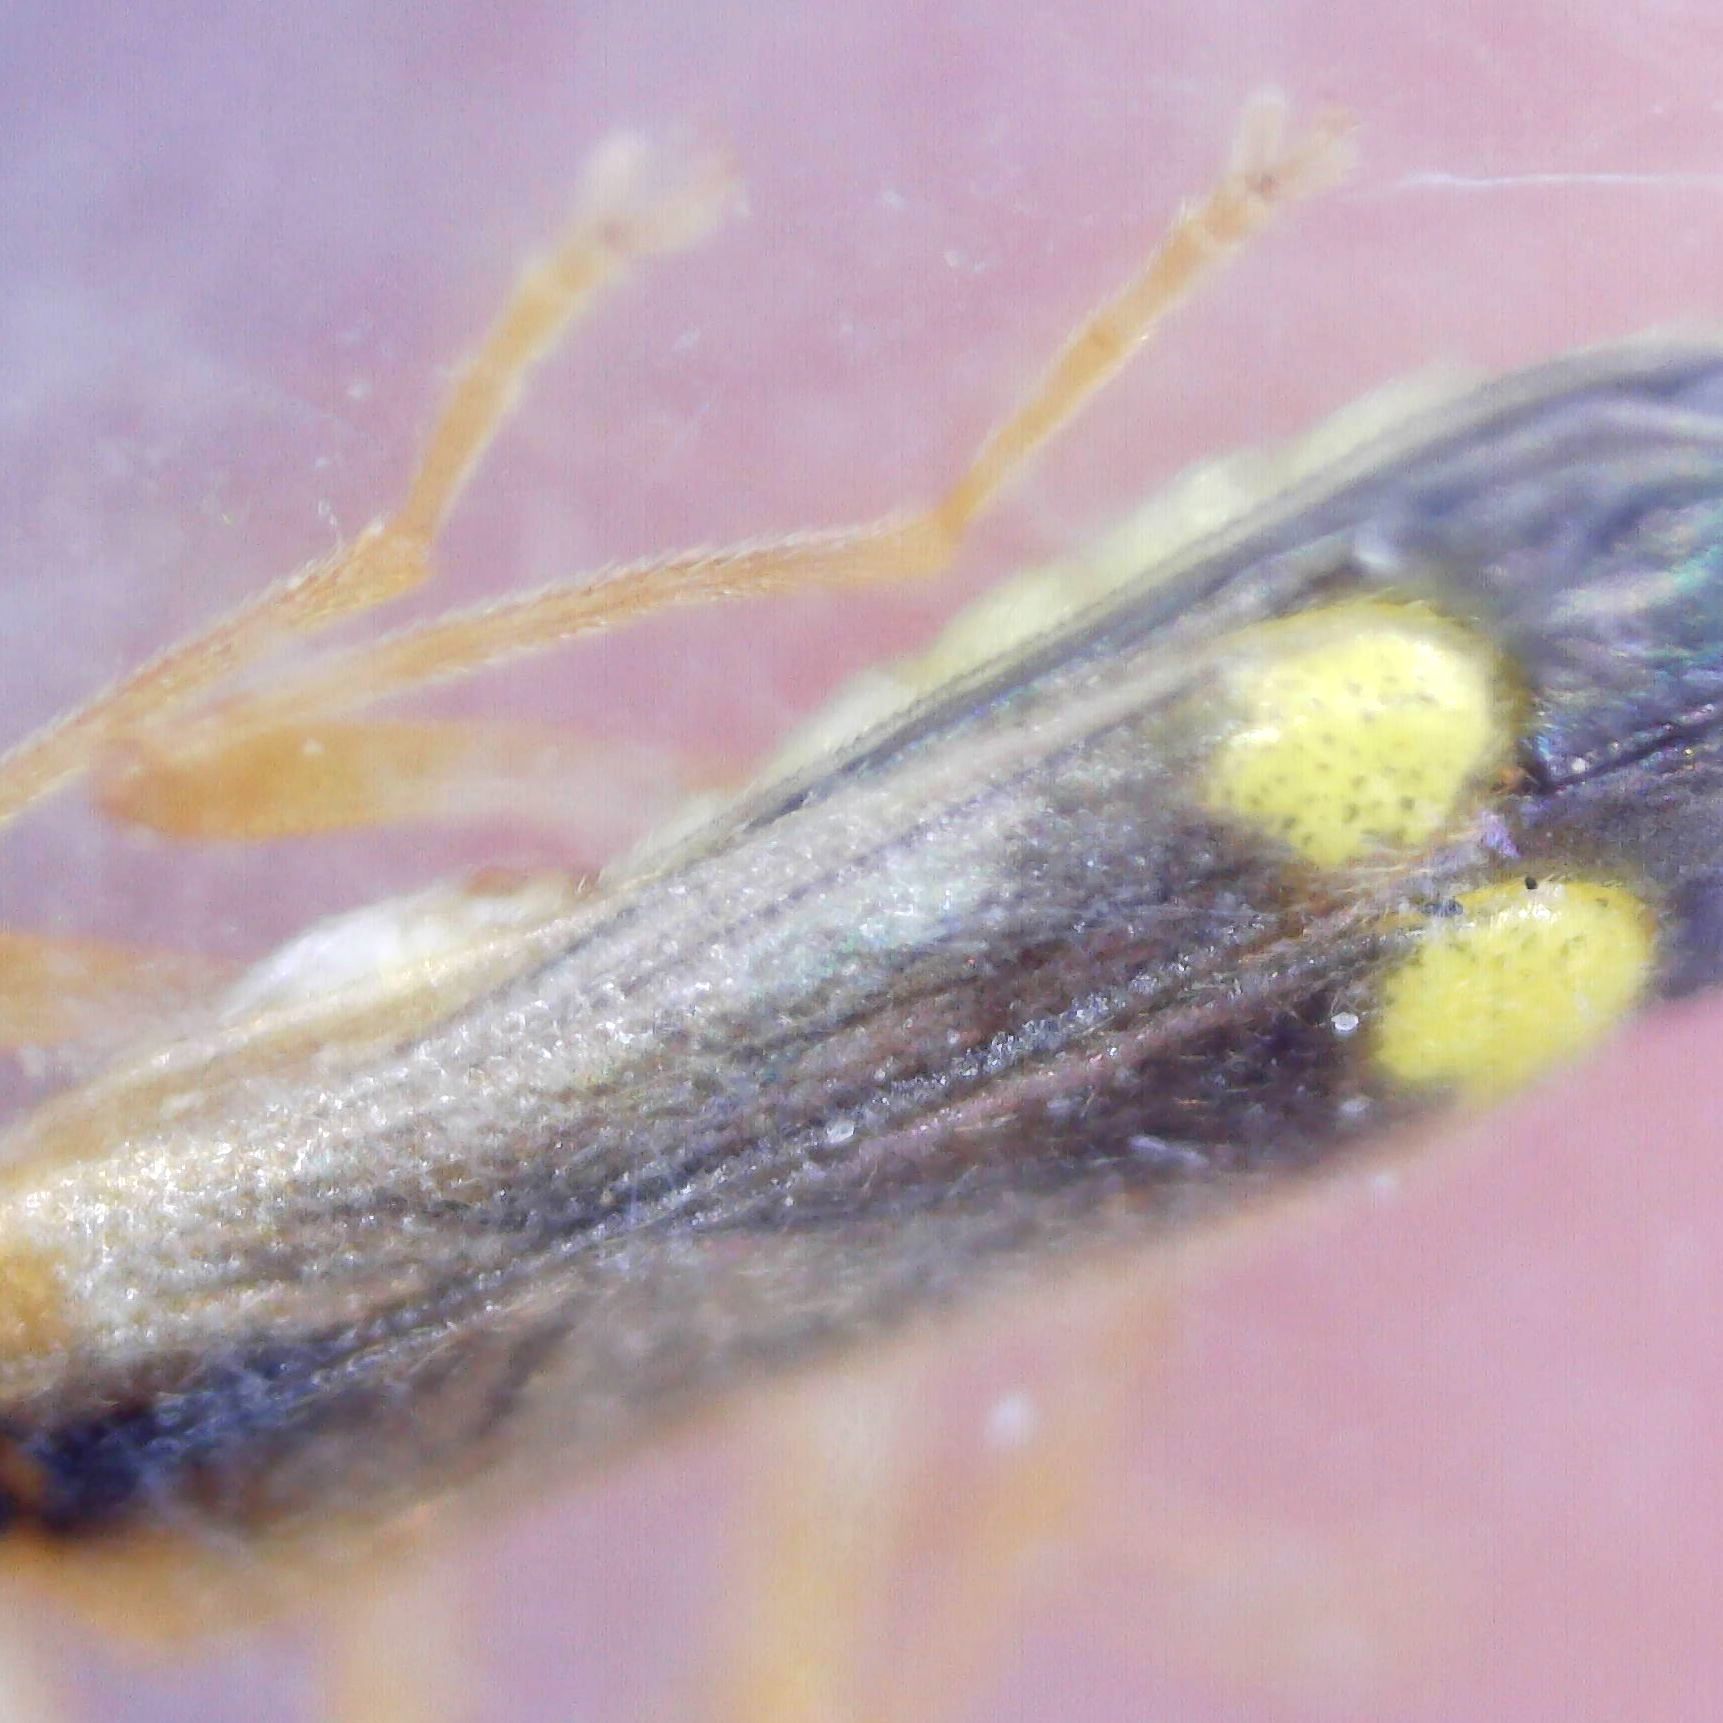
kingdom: Animalia
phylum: Arthropoda
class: Insecta
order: Coleoptera
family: Cantharidae
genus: Malthinus
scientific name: Malthinus seriepunctatus
